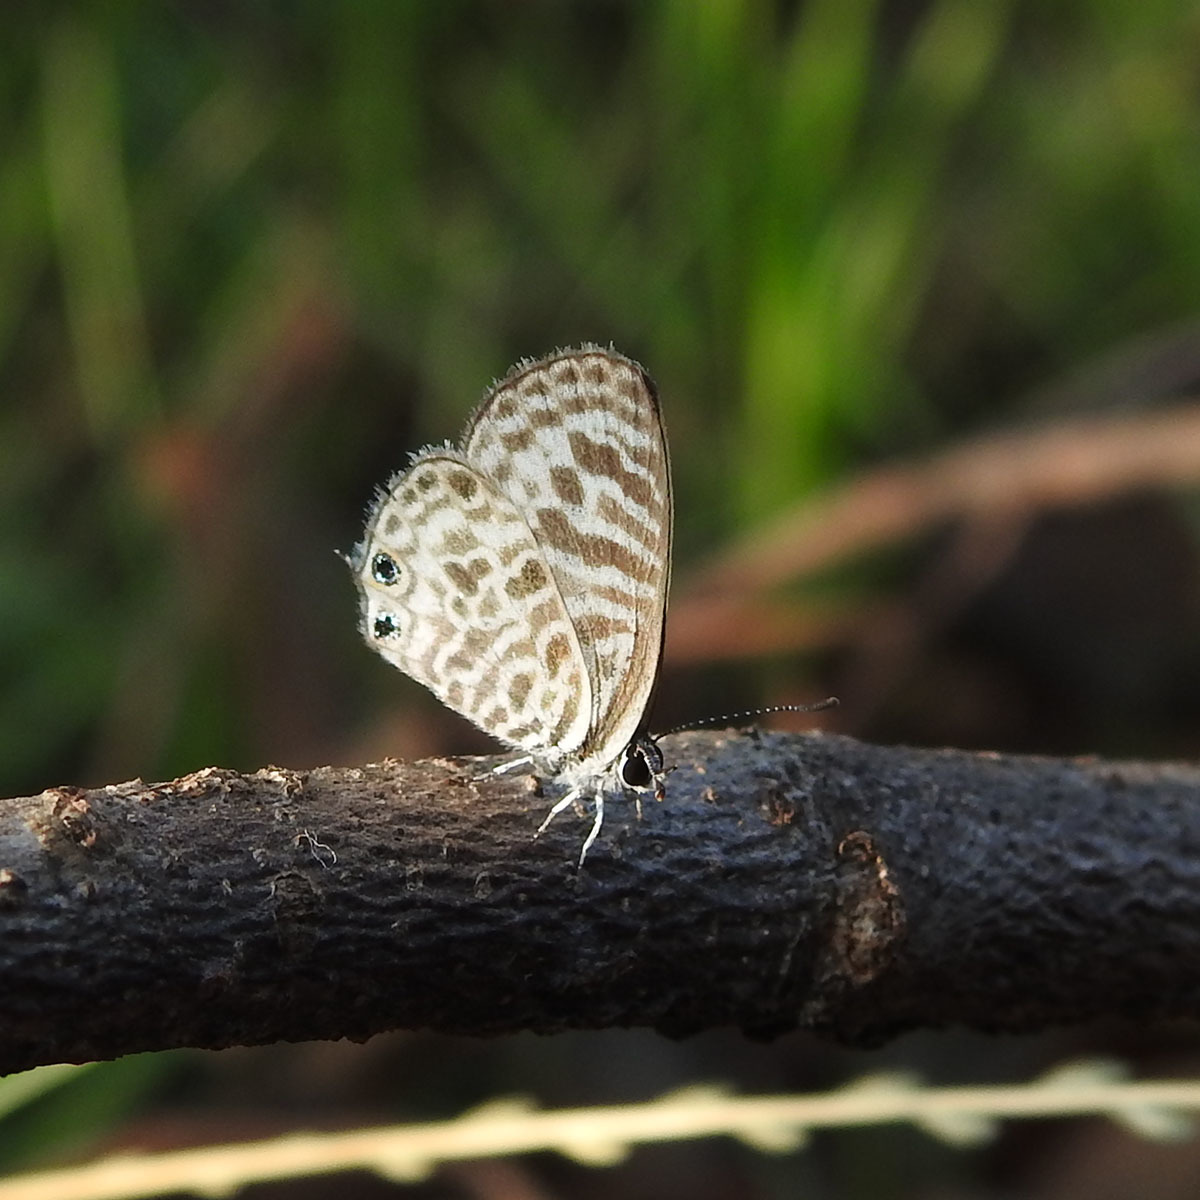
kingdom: Animalia
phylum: Arthropoda
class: Insecta
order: Lepidoptera
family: Lycaenidae
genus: Leptotes
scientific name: Leptotes plinius
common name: Zebra blue
